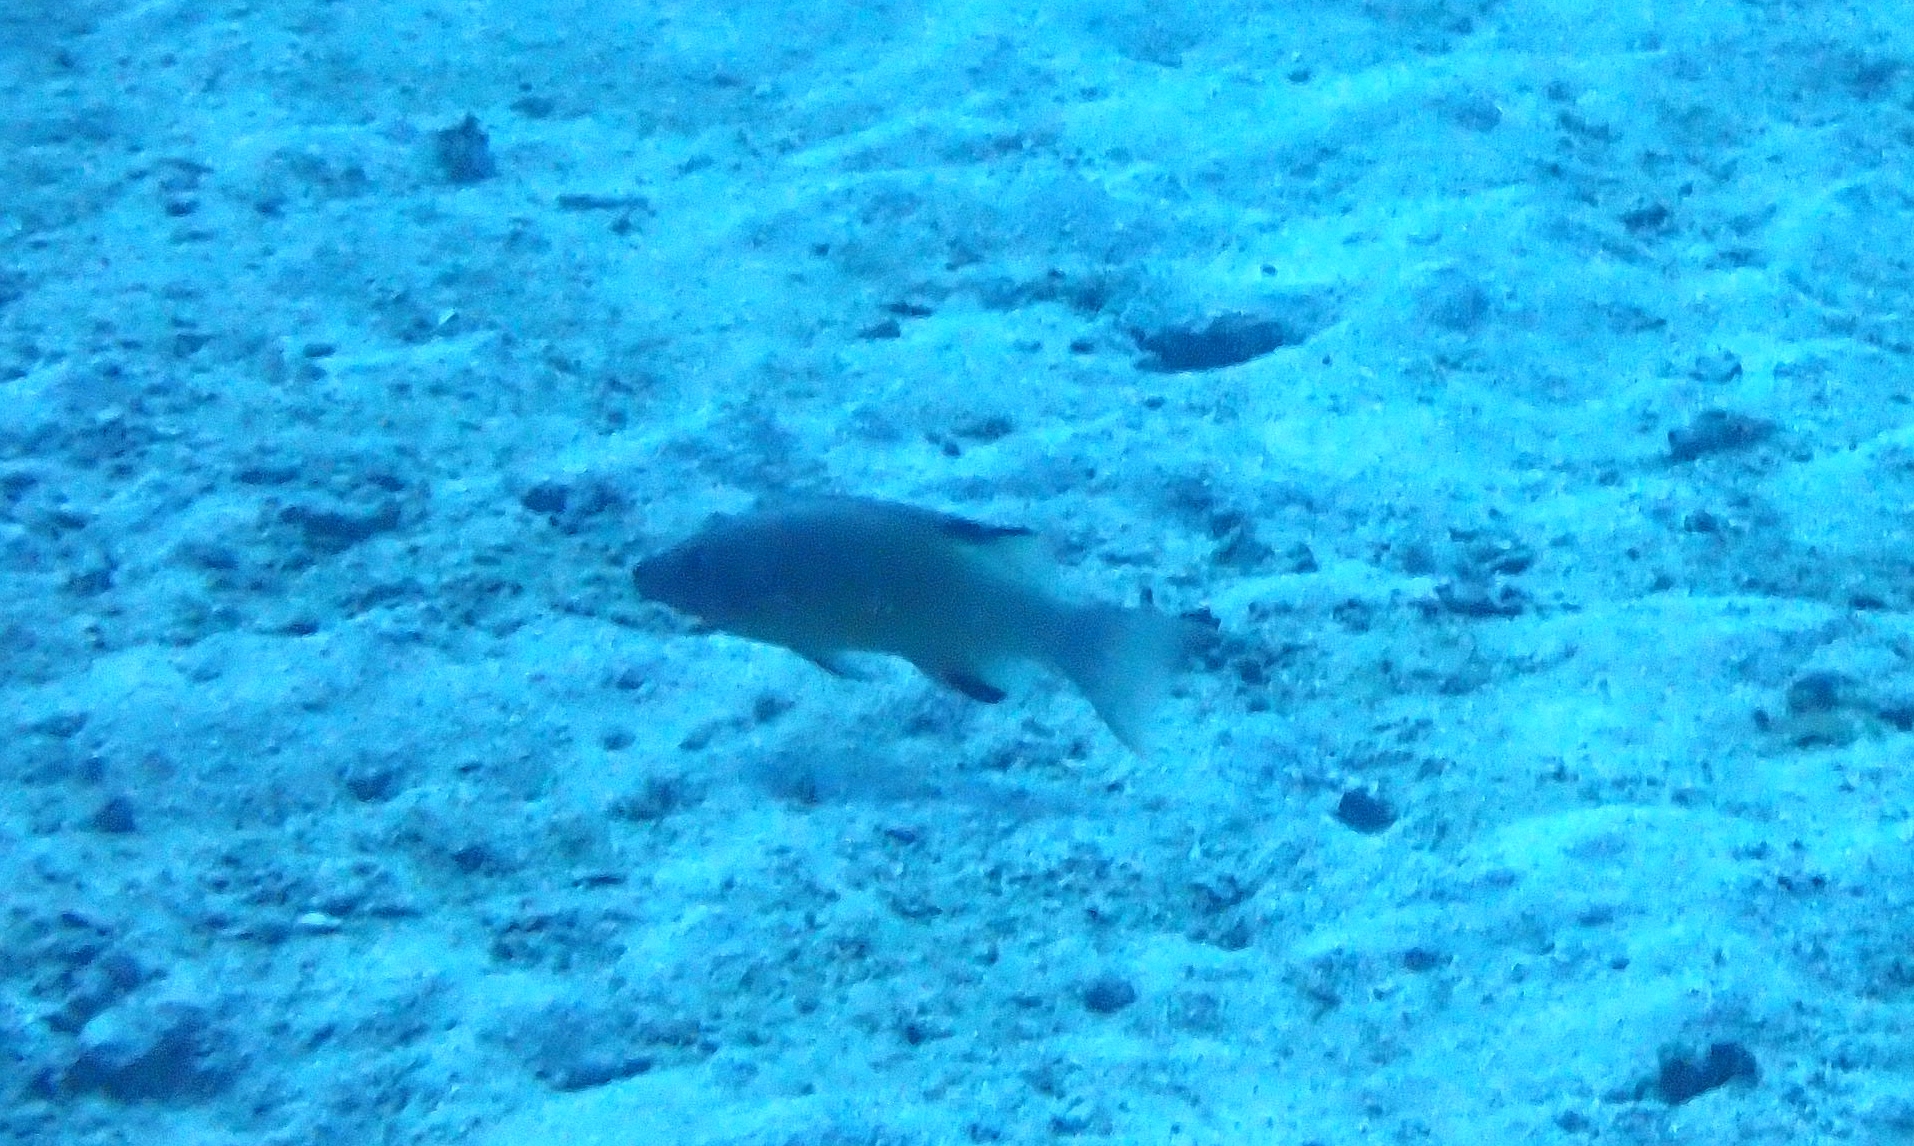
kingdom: Animalia
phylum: Chordata
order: Perciformes
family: Labridae
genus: Bodianus
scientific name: Bodianus neilli
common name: Bay of bengal hogfish
